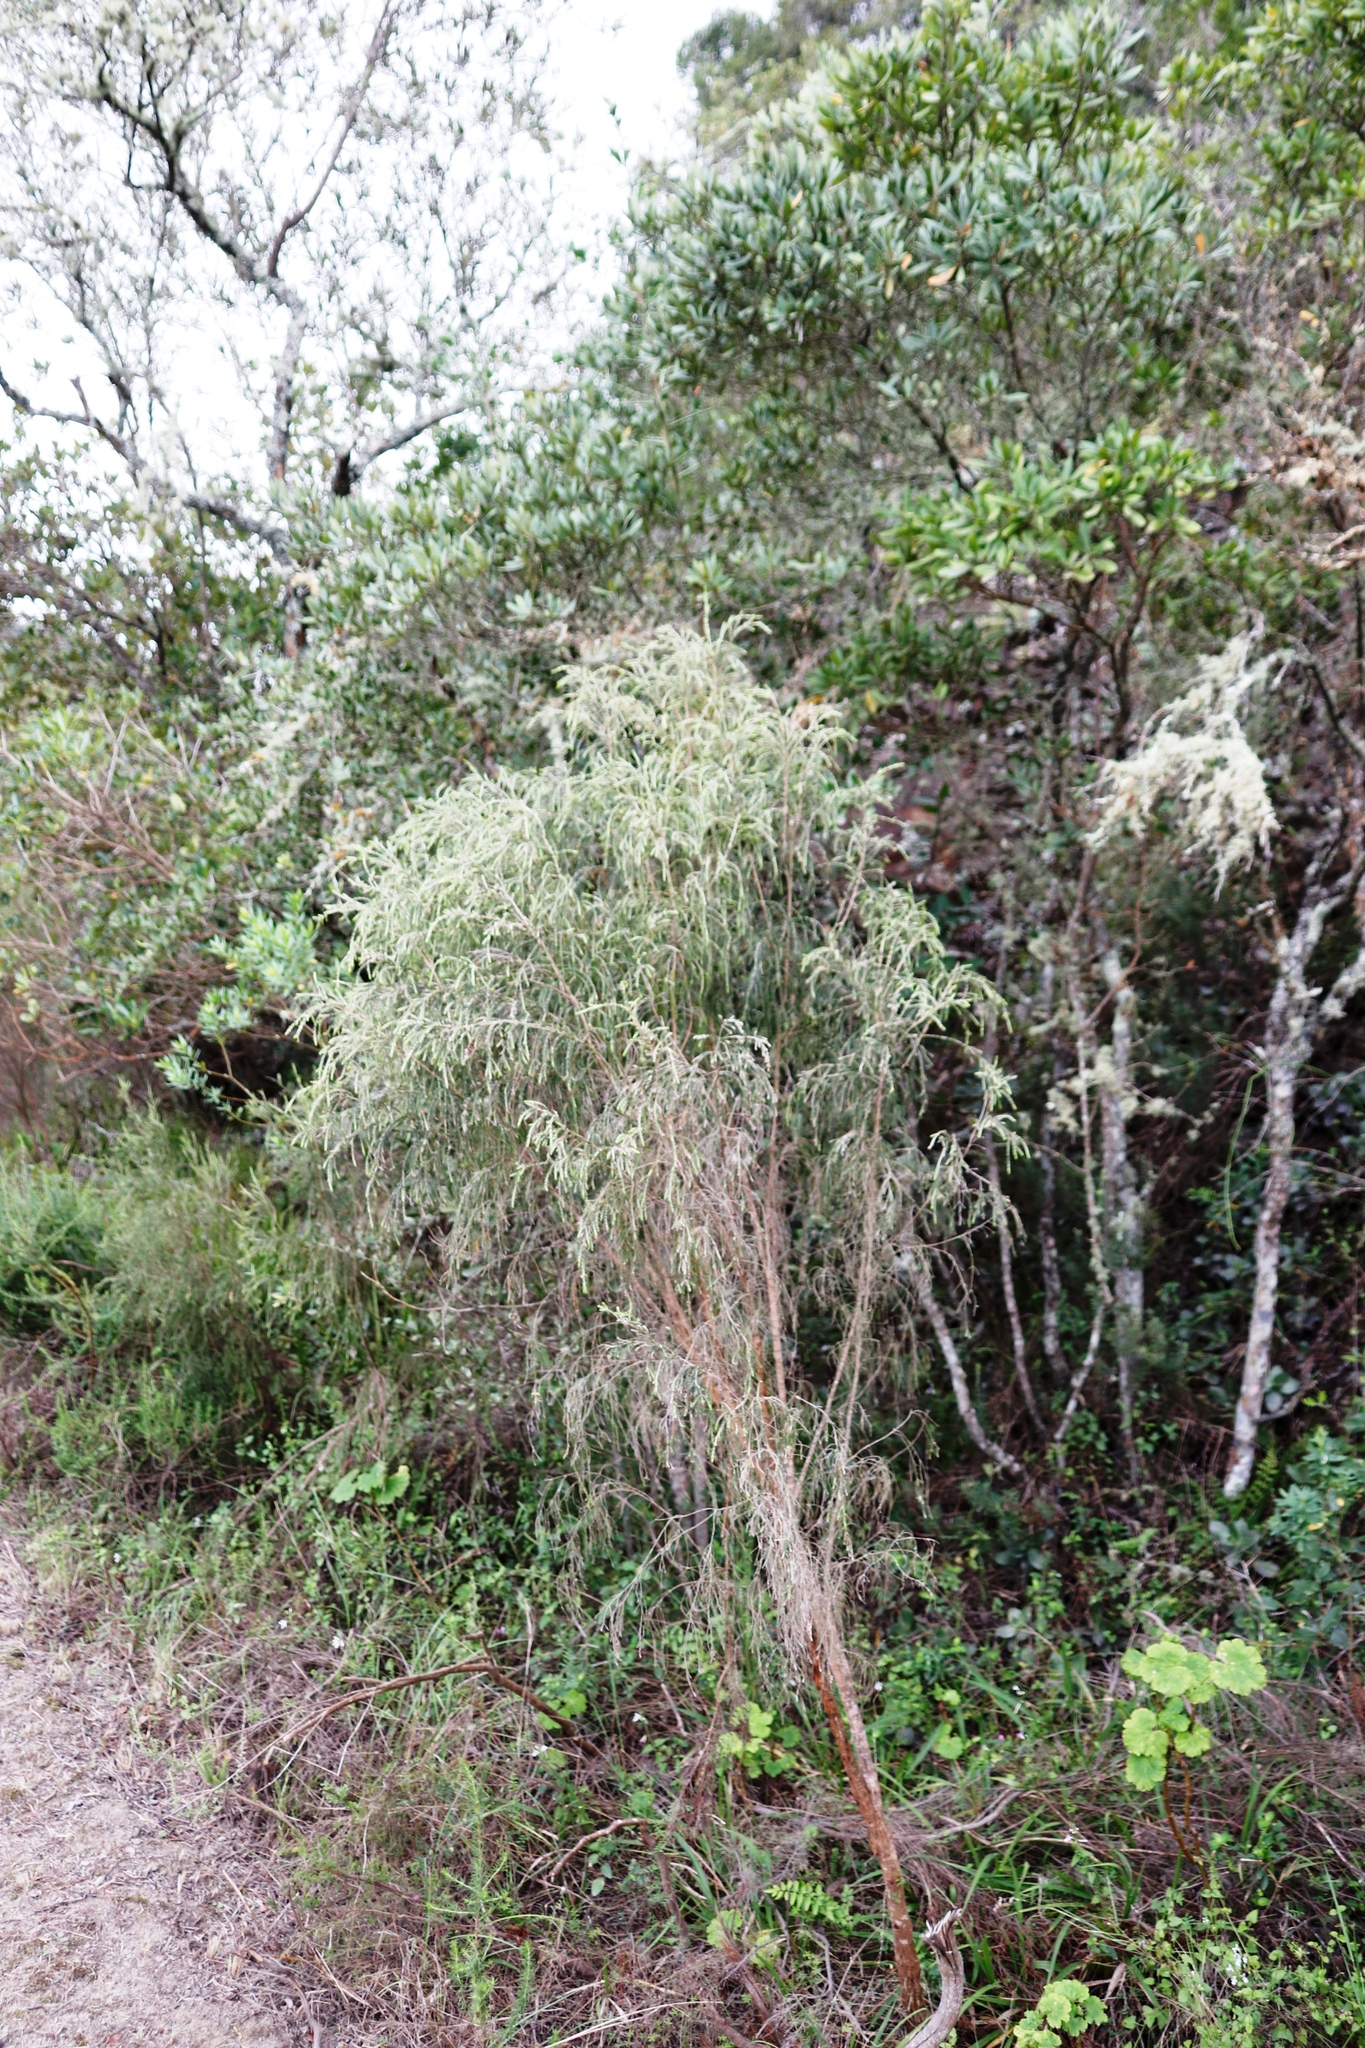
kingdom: Plantae
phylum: Tracheophyta
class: Magnoliopsida
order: Malvales
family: Thymelaeaceae
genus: Passerina
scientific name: Passerina falcifolia
